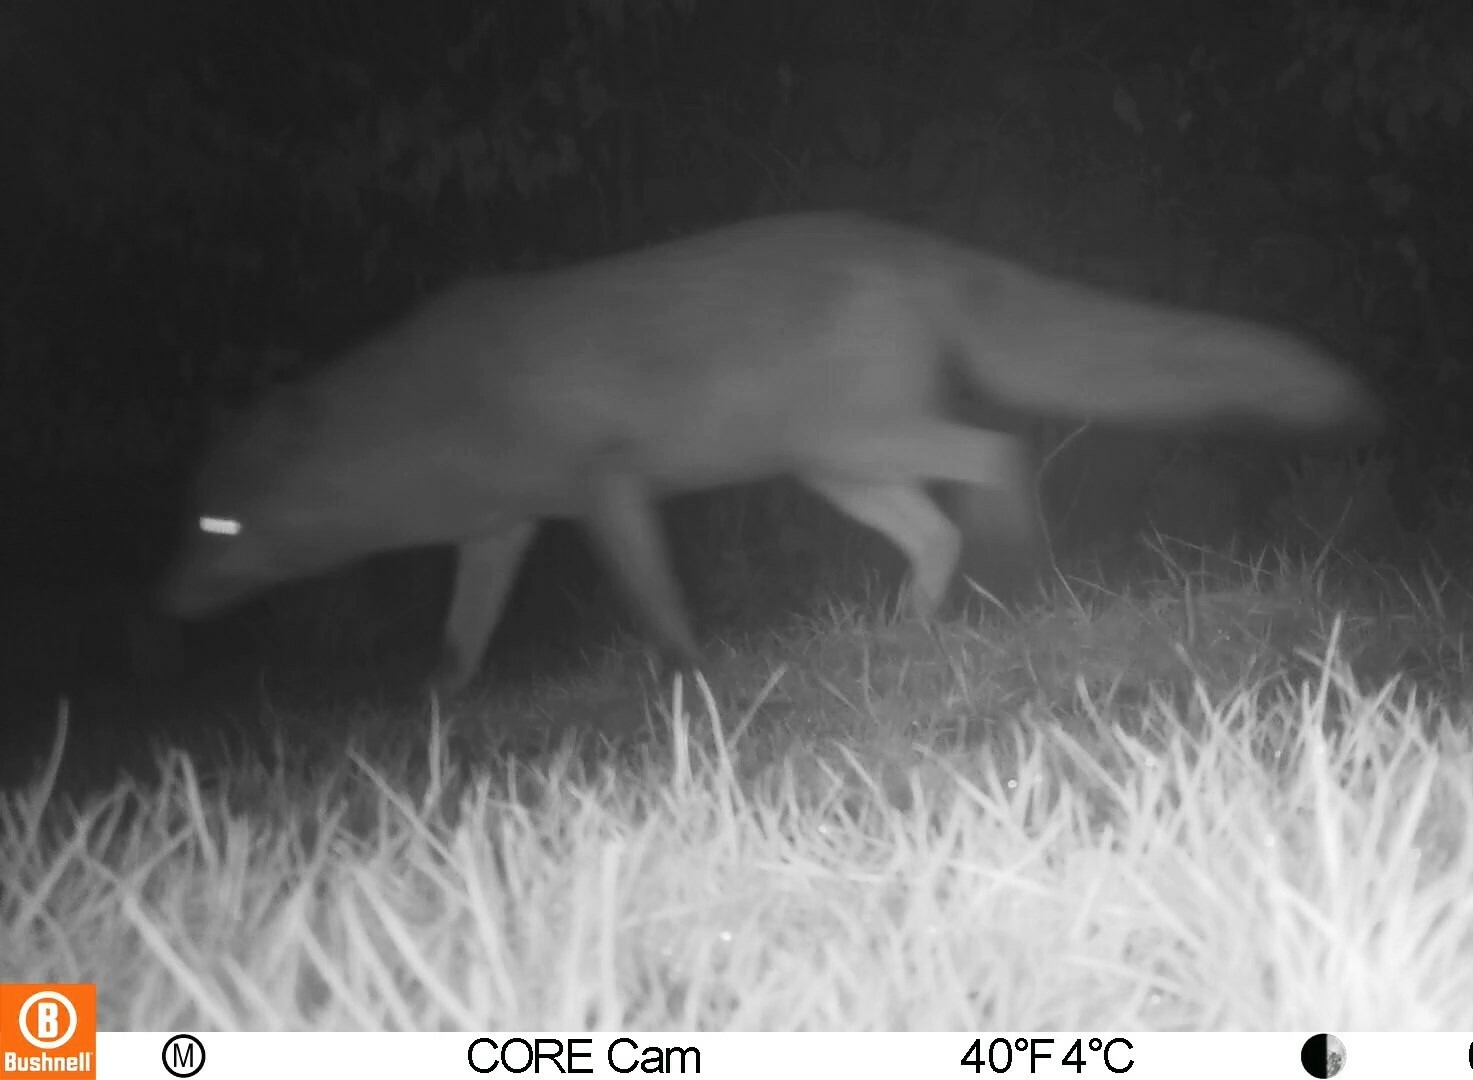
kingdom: Animalia
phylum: Chordata
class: Mammalia
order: Carnivora
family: Canidae
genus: Vulpes
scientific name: Vulpes vulpes
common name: Red fox
